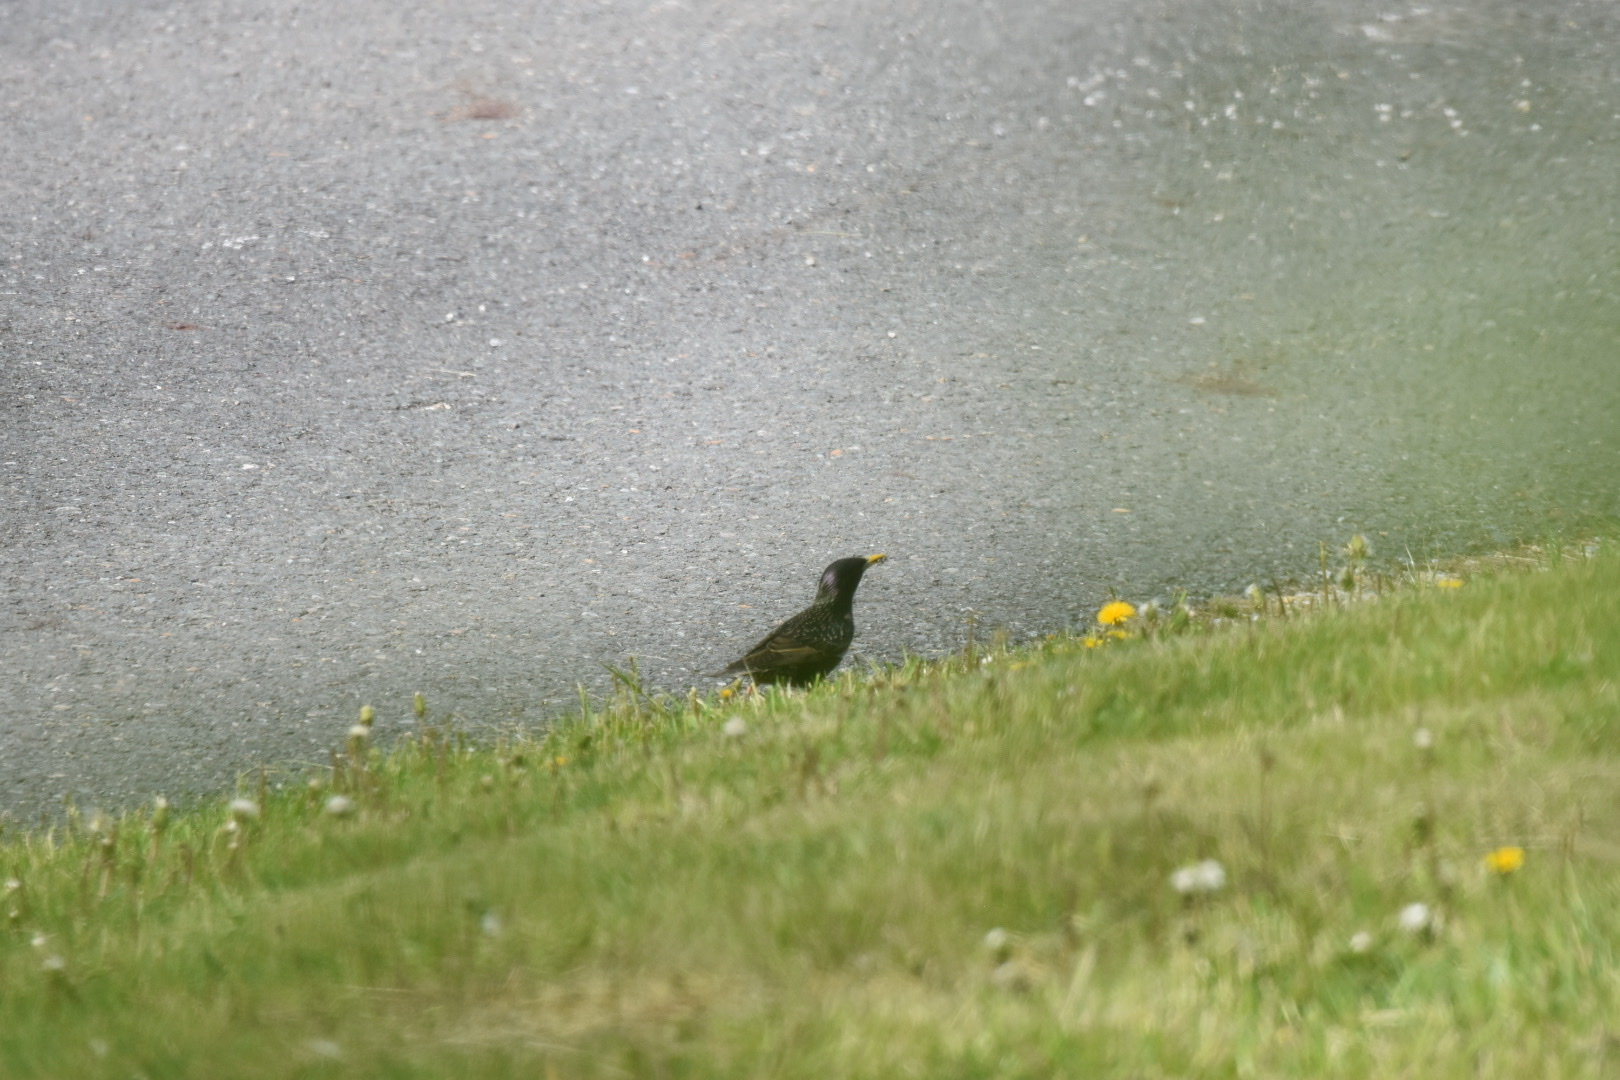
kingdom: Animalia
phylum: Chordata
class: Aves
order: Passeriformes
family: Sturnidae
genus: Sturnus
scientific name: Sturnus vulgaris
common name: Common starling
